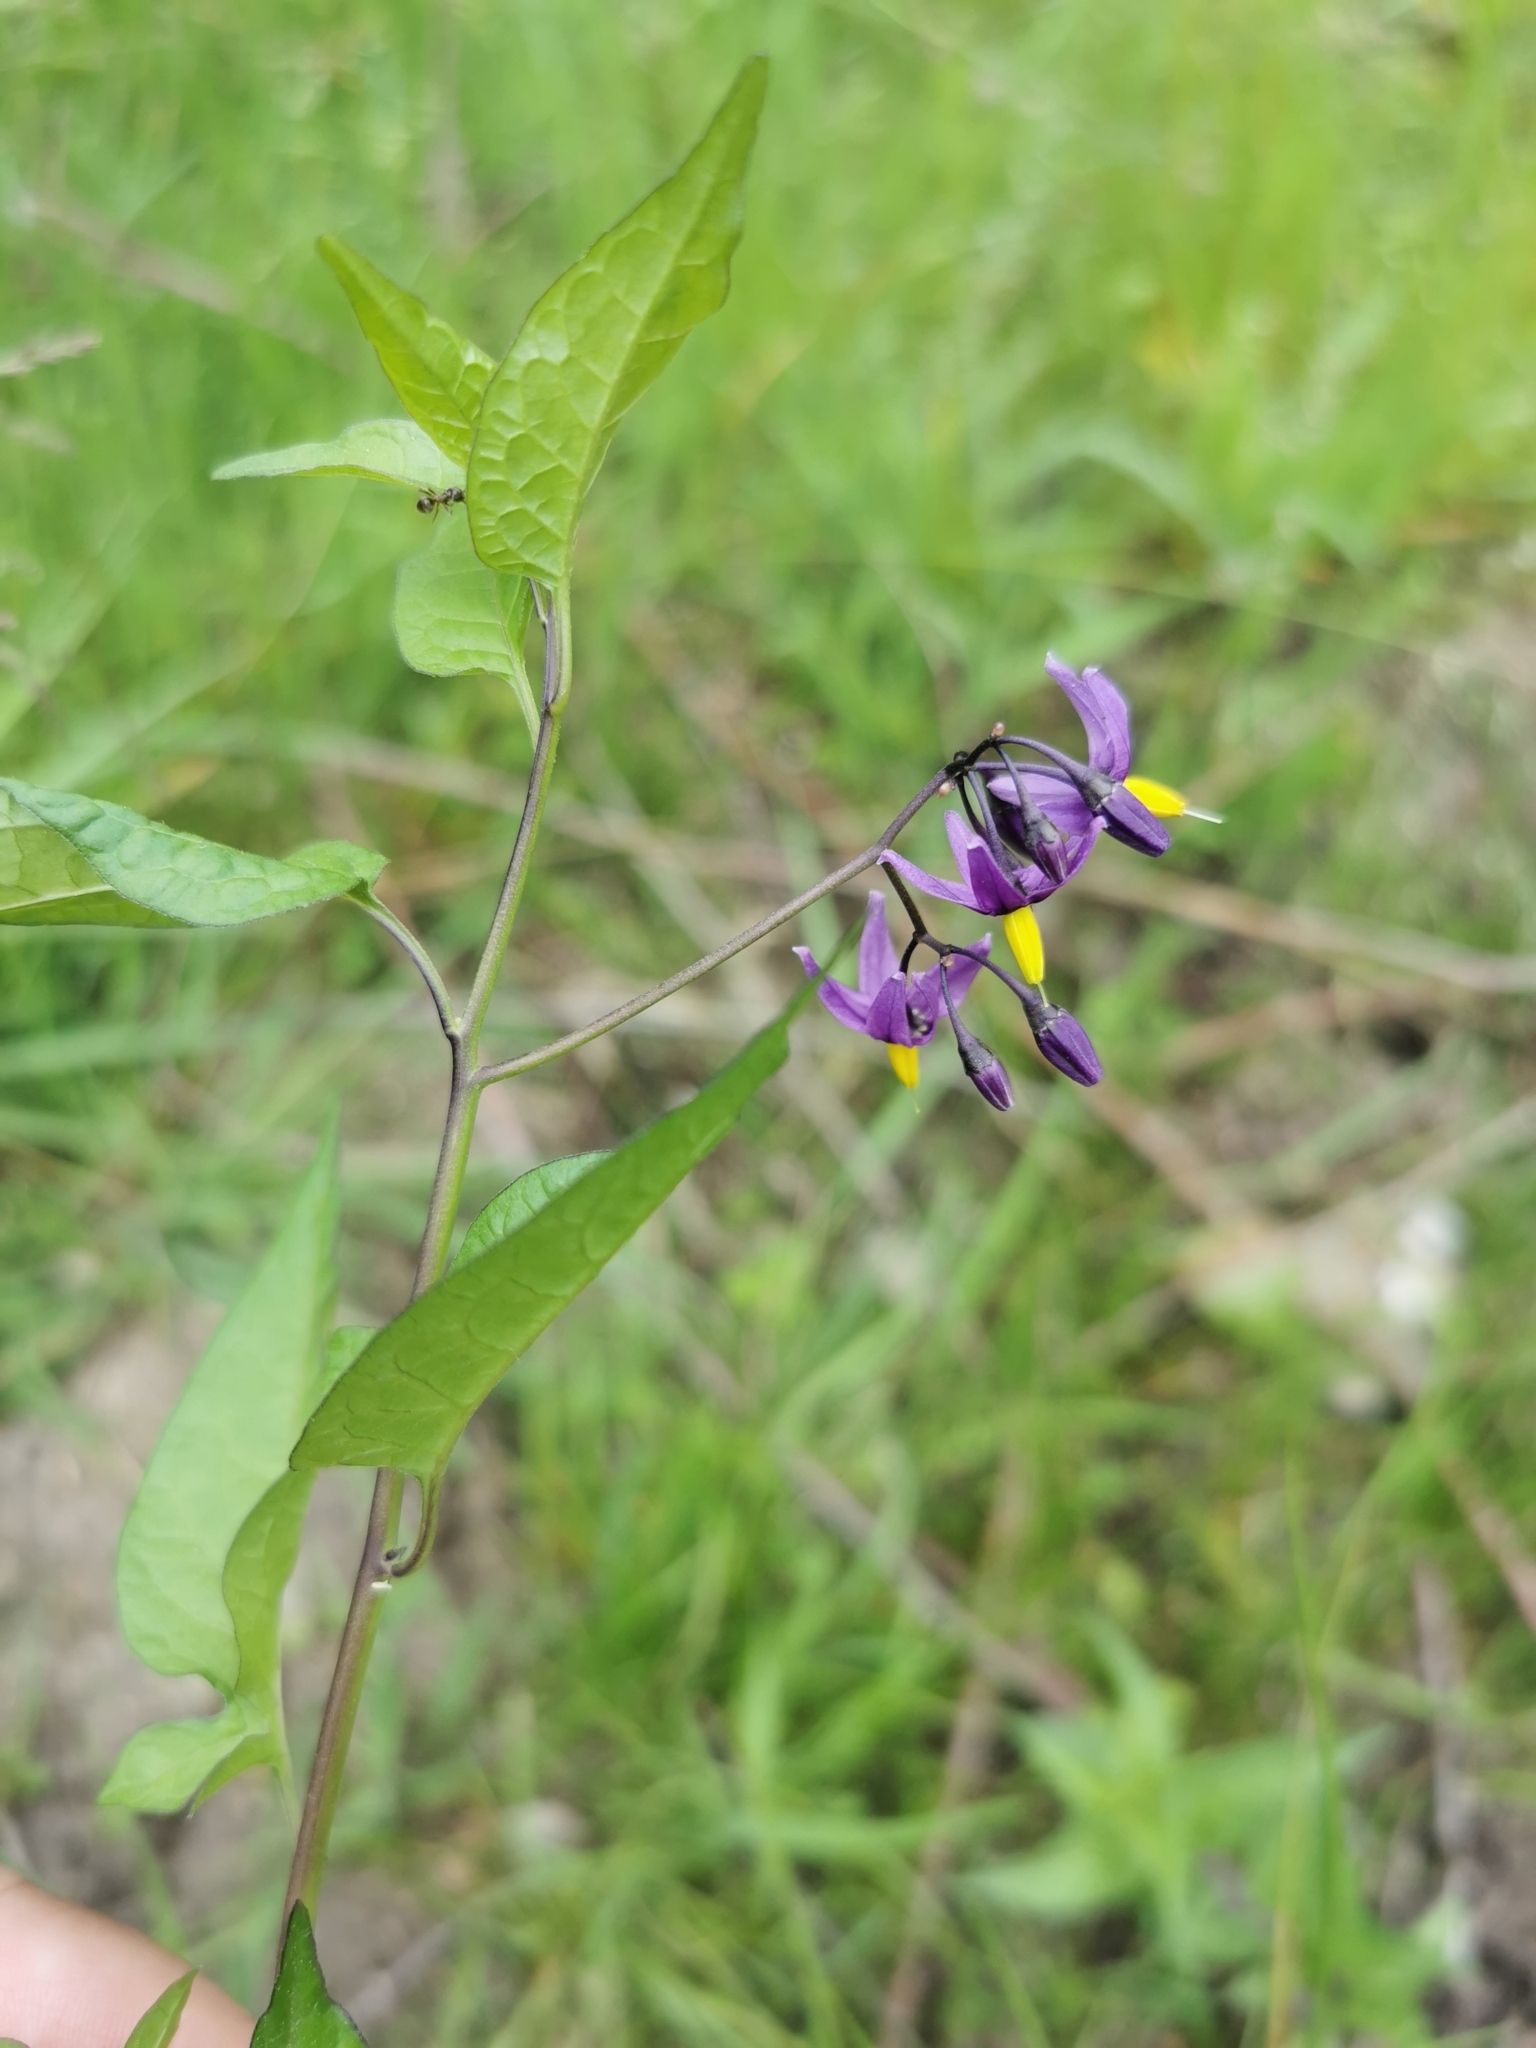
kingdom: Plantae
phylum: Tracheophyta
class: Magnoliopsida
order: Solanales
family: Solanaceae
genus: Solanum
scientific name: Solanum dulcamara
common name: Climbing nightshade
